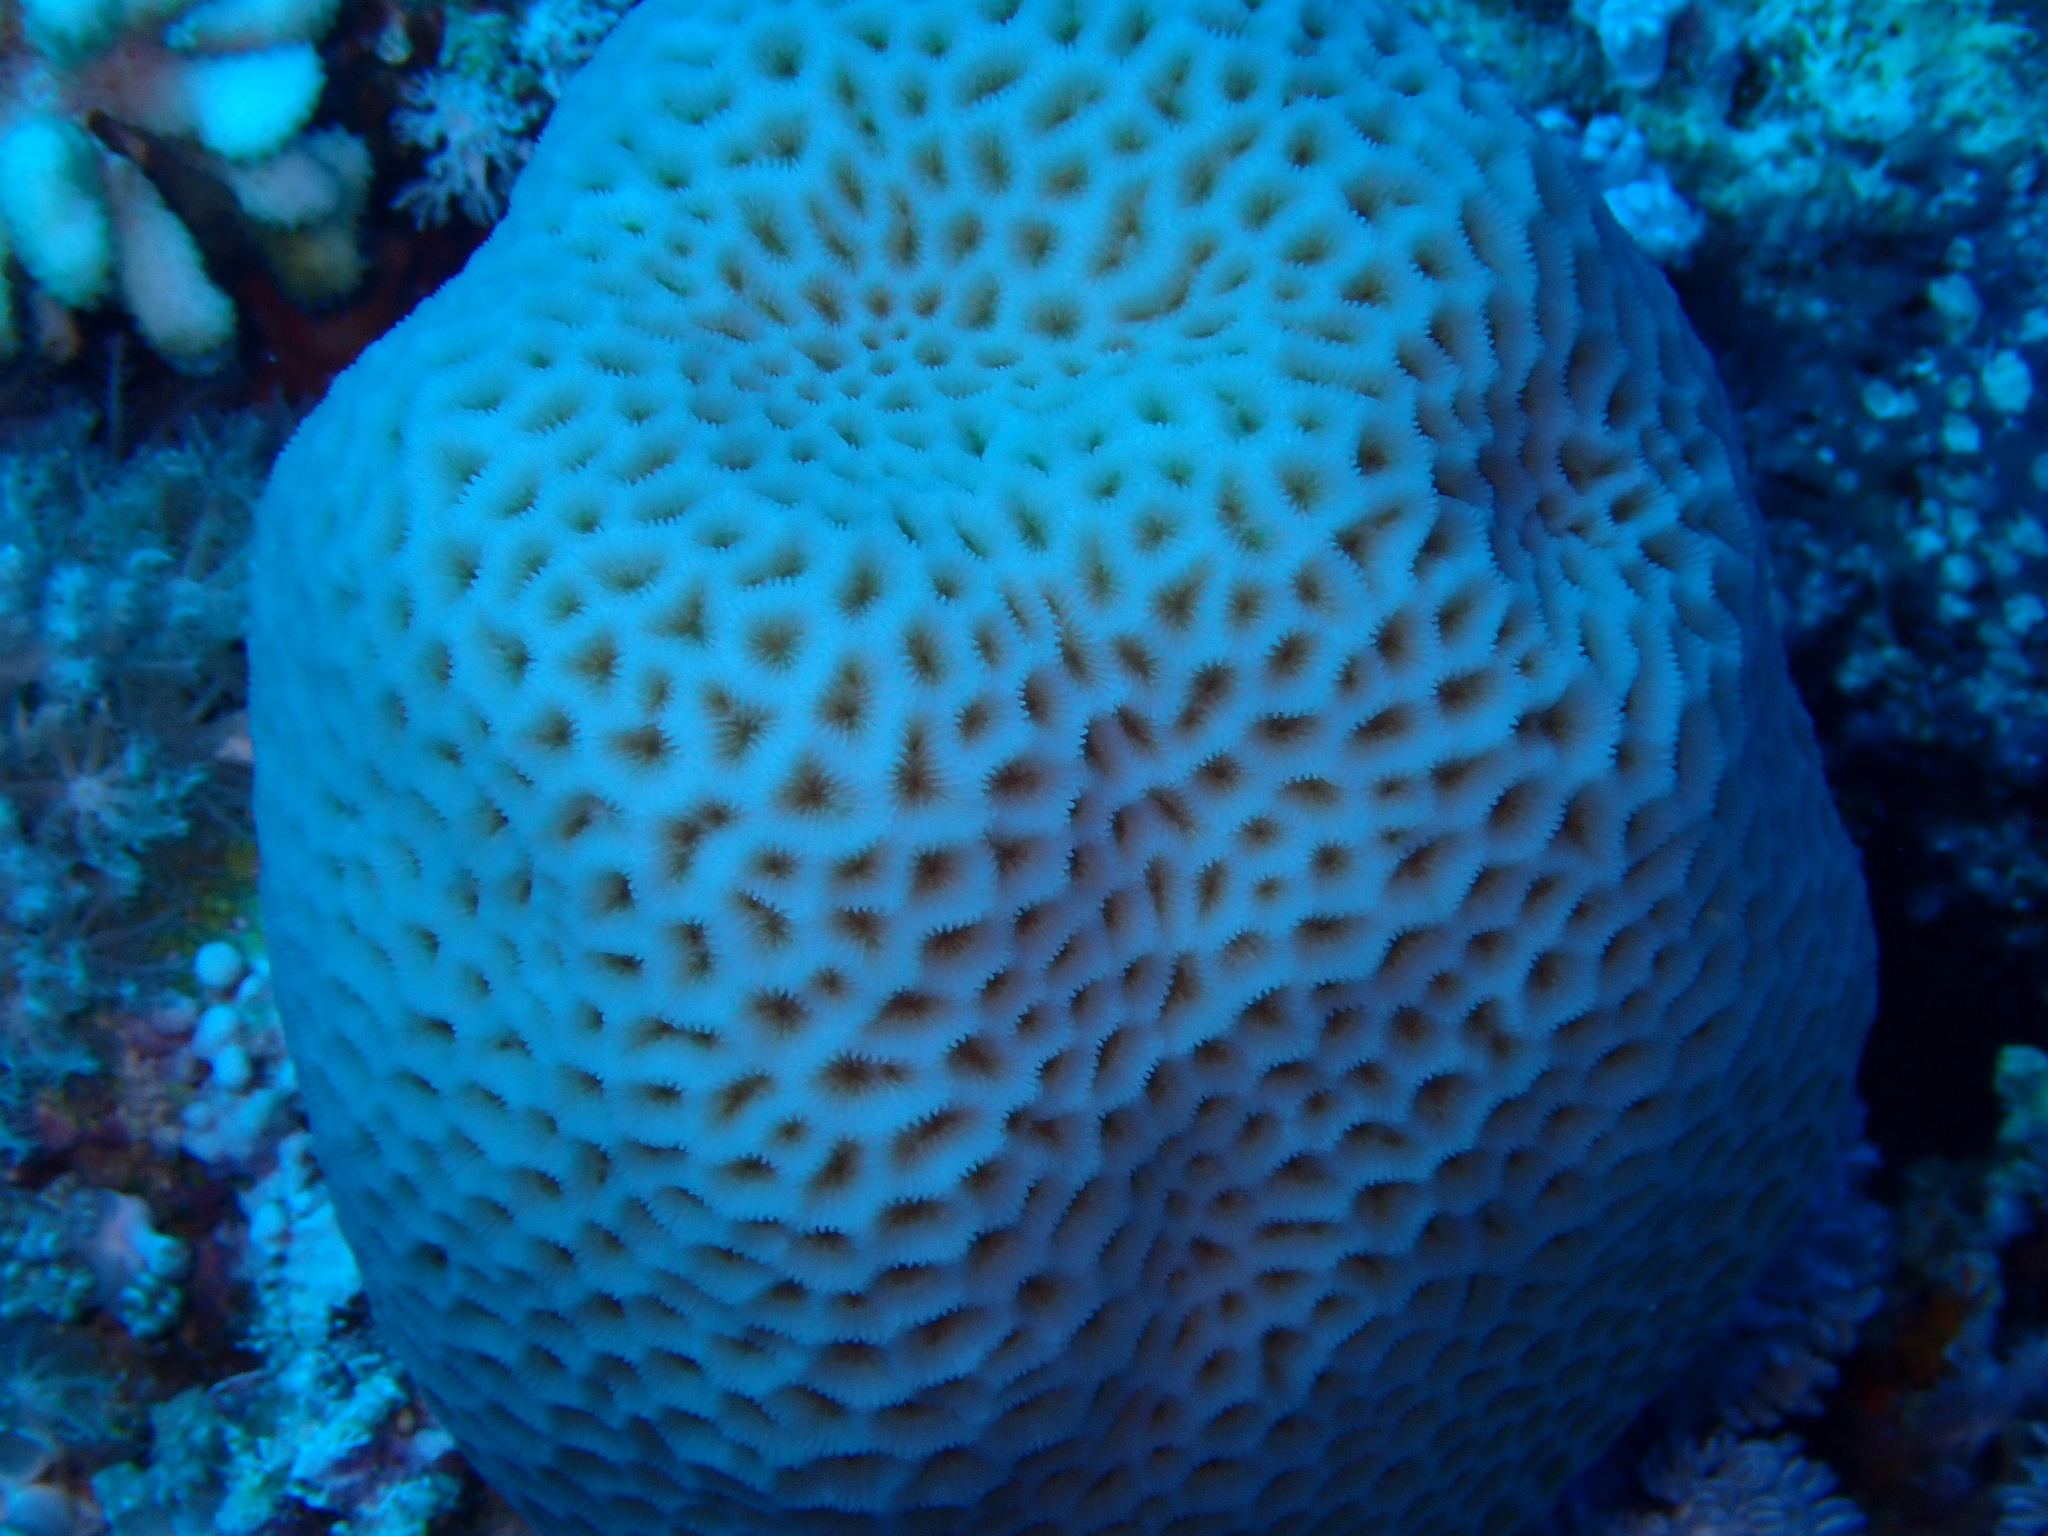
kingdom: Animalia
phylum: Cnidaria
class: Anthozoa
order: Scleractinia
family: Merulinidae
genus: Goniastrea
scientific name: Goniastrea pectinata
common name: Lesser star coral
